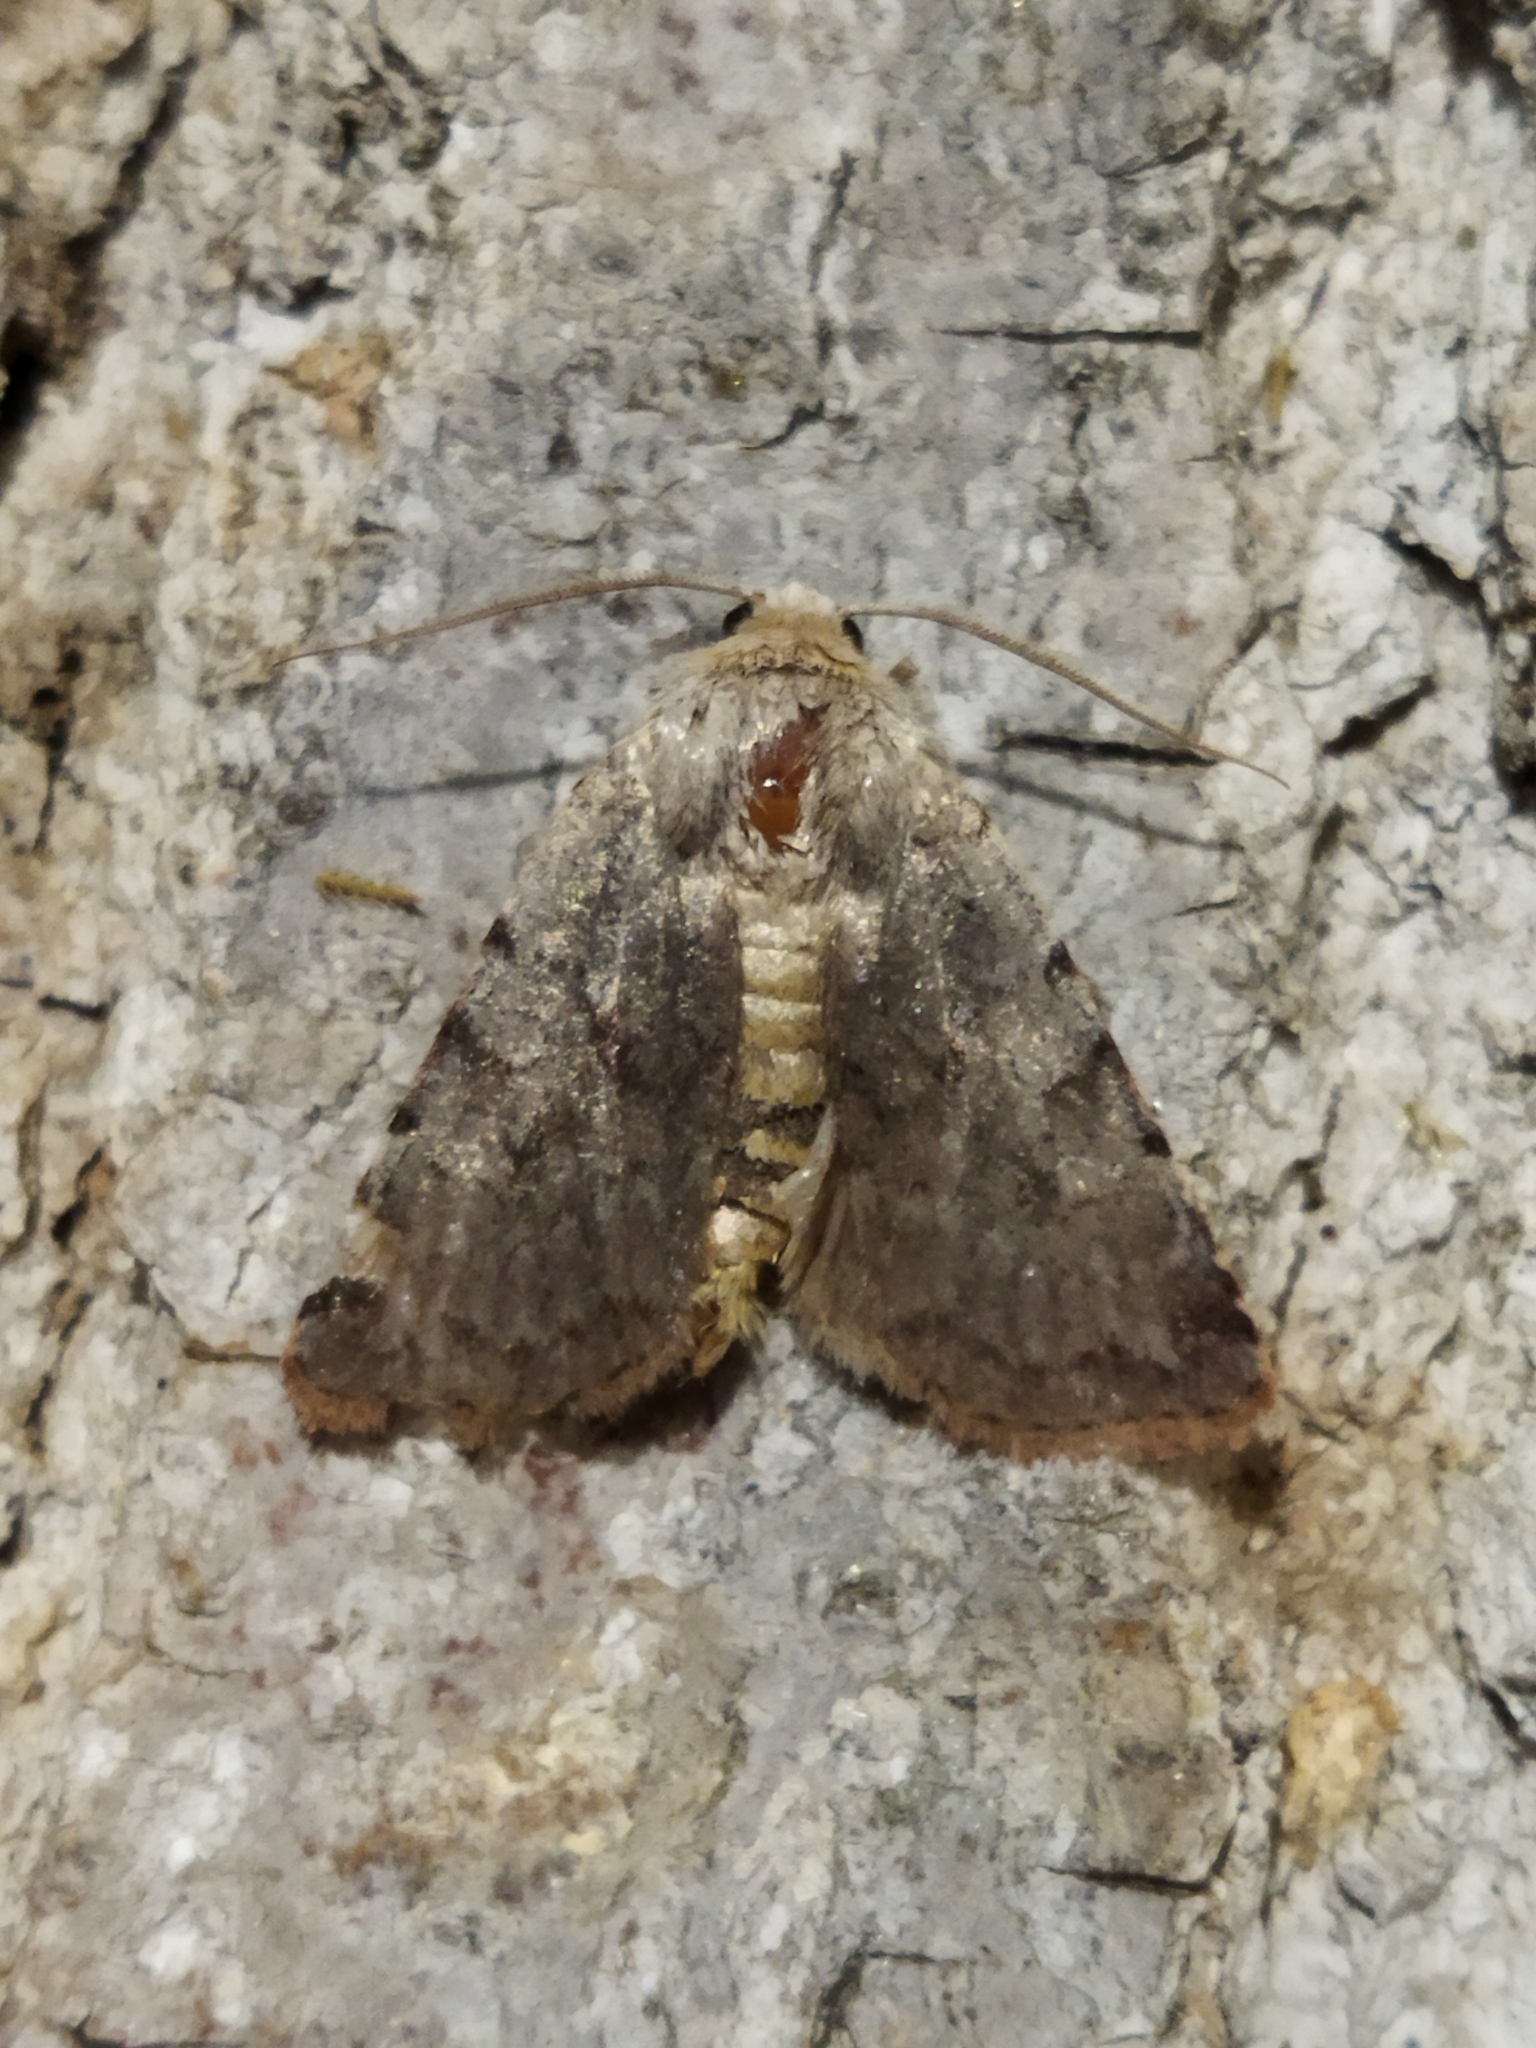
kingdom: Animalia
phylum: Arthropoda
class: Insecta
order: Lepidoptera
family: Noctuidae
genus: Cerastis
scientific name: Cerastis rubricosa
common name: Red chestnut
